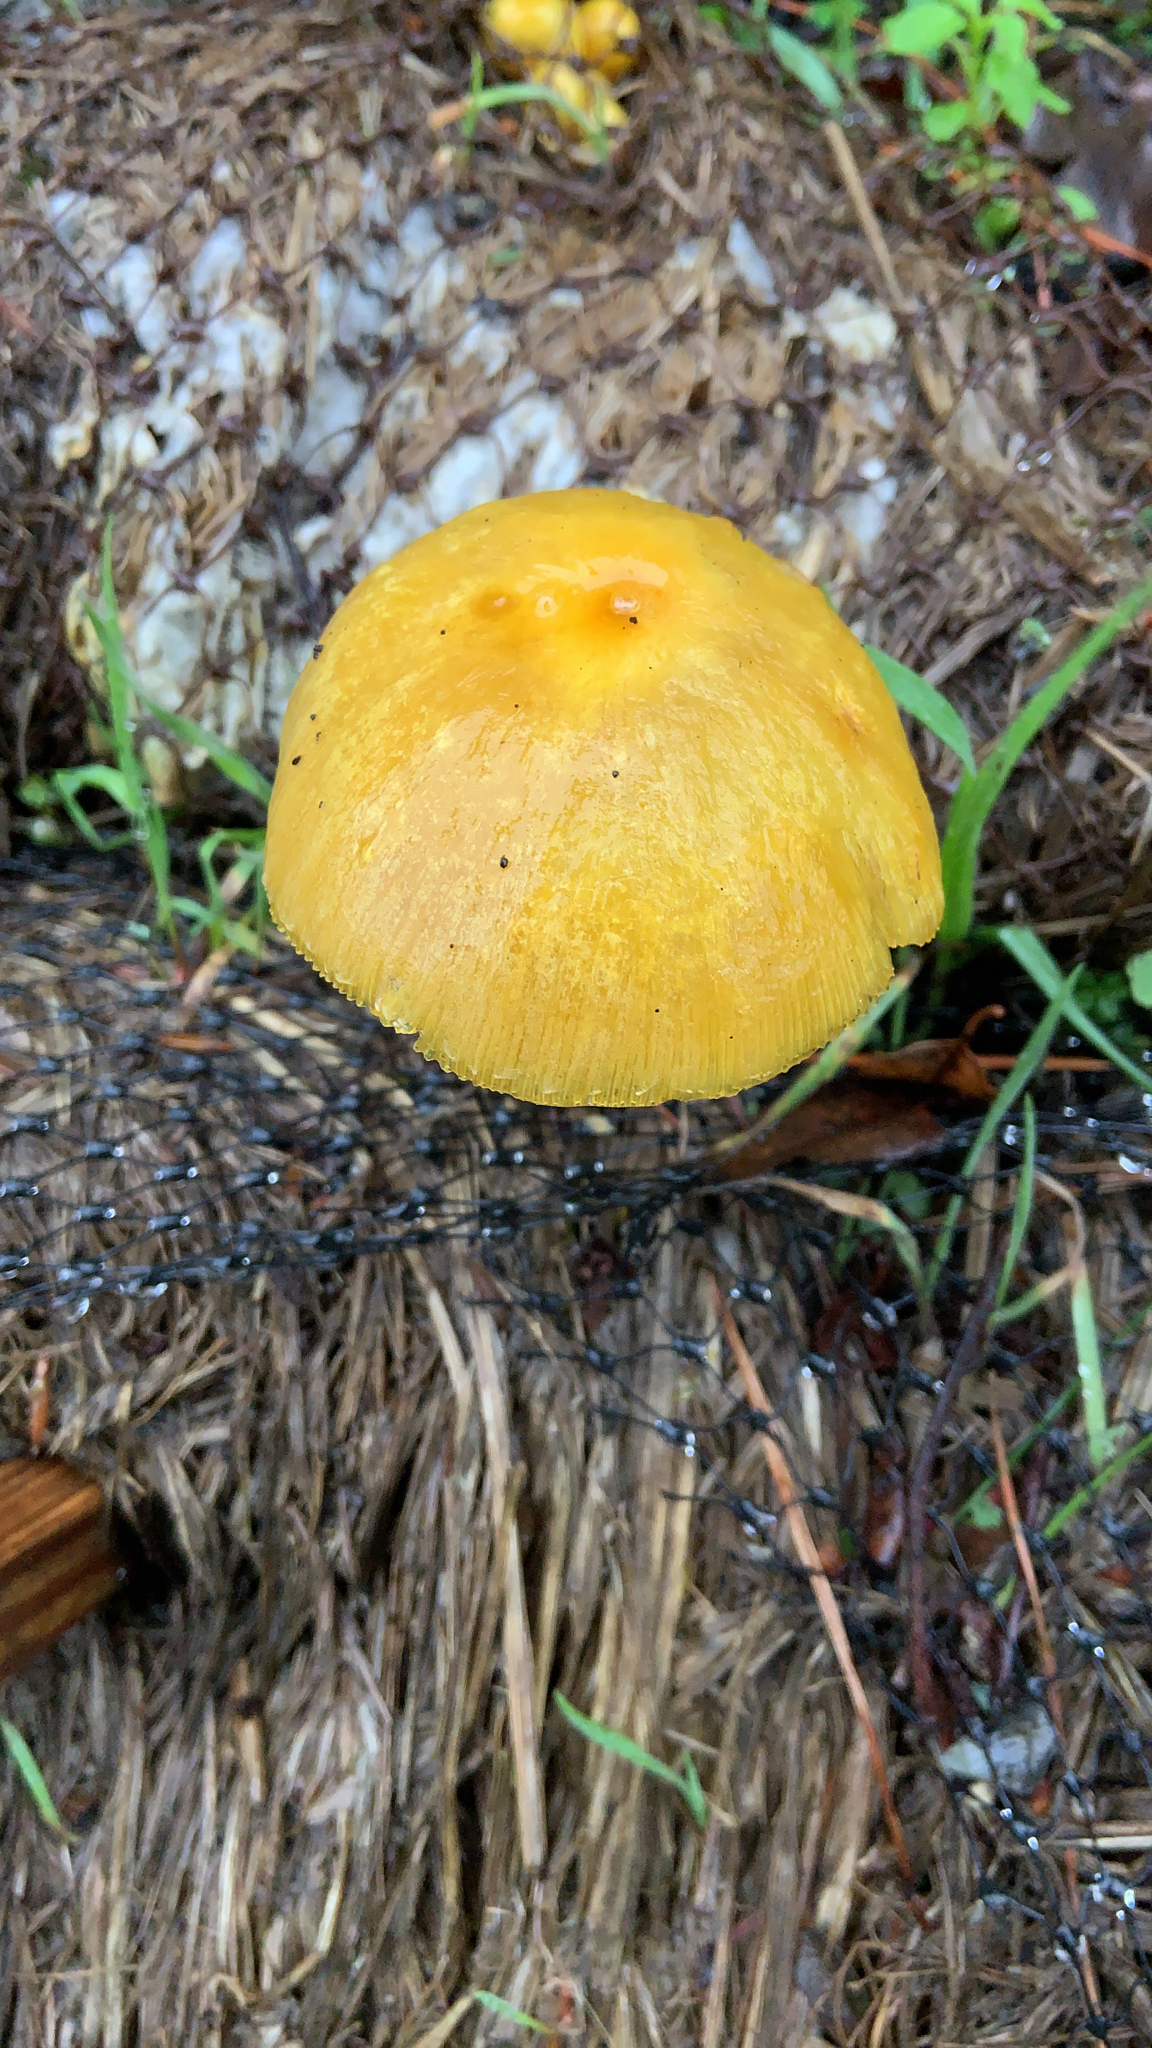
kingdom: Fungi
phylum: Basidiomycota
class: Agaricomycetes
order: Agaricales
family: Bolbitiaceae
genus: Bolbitius
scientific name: Bolbitius titubans
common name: Yellow fieldcap
